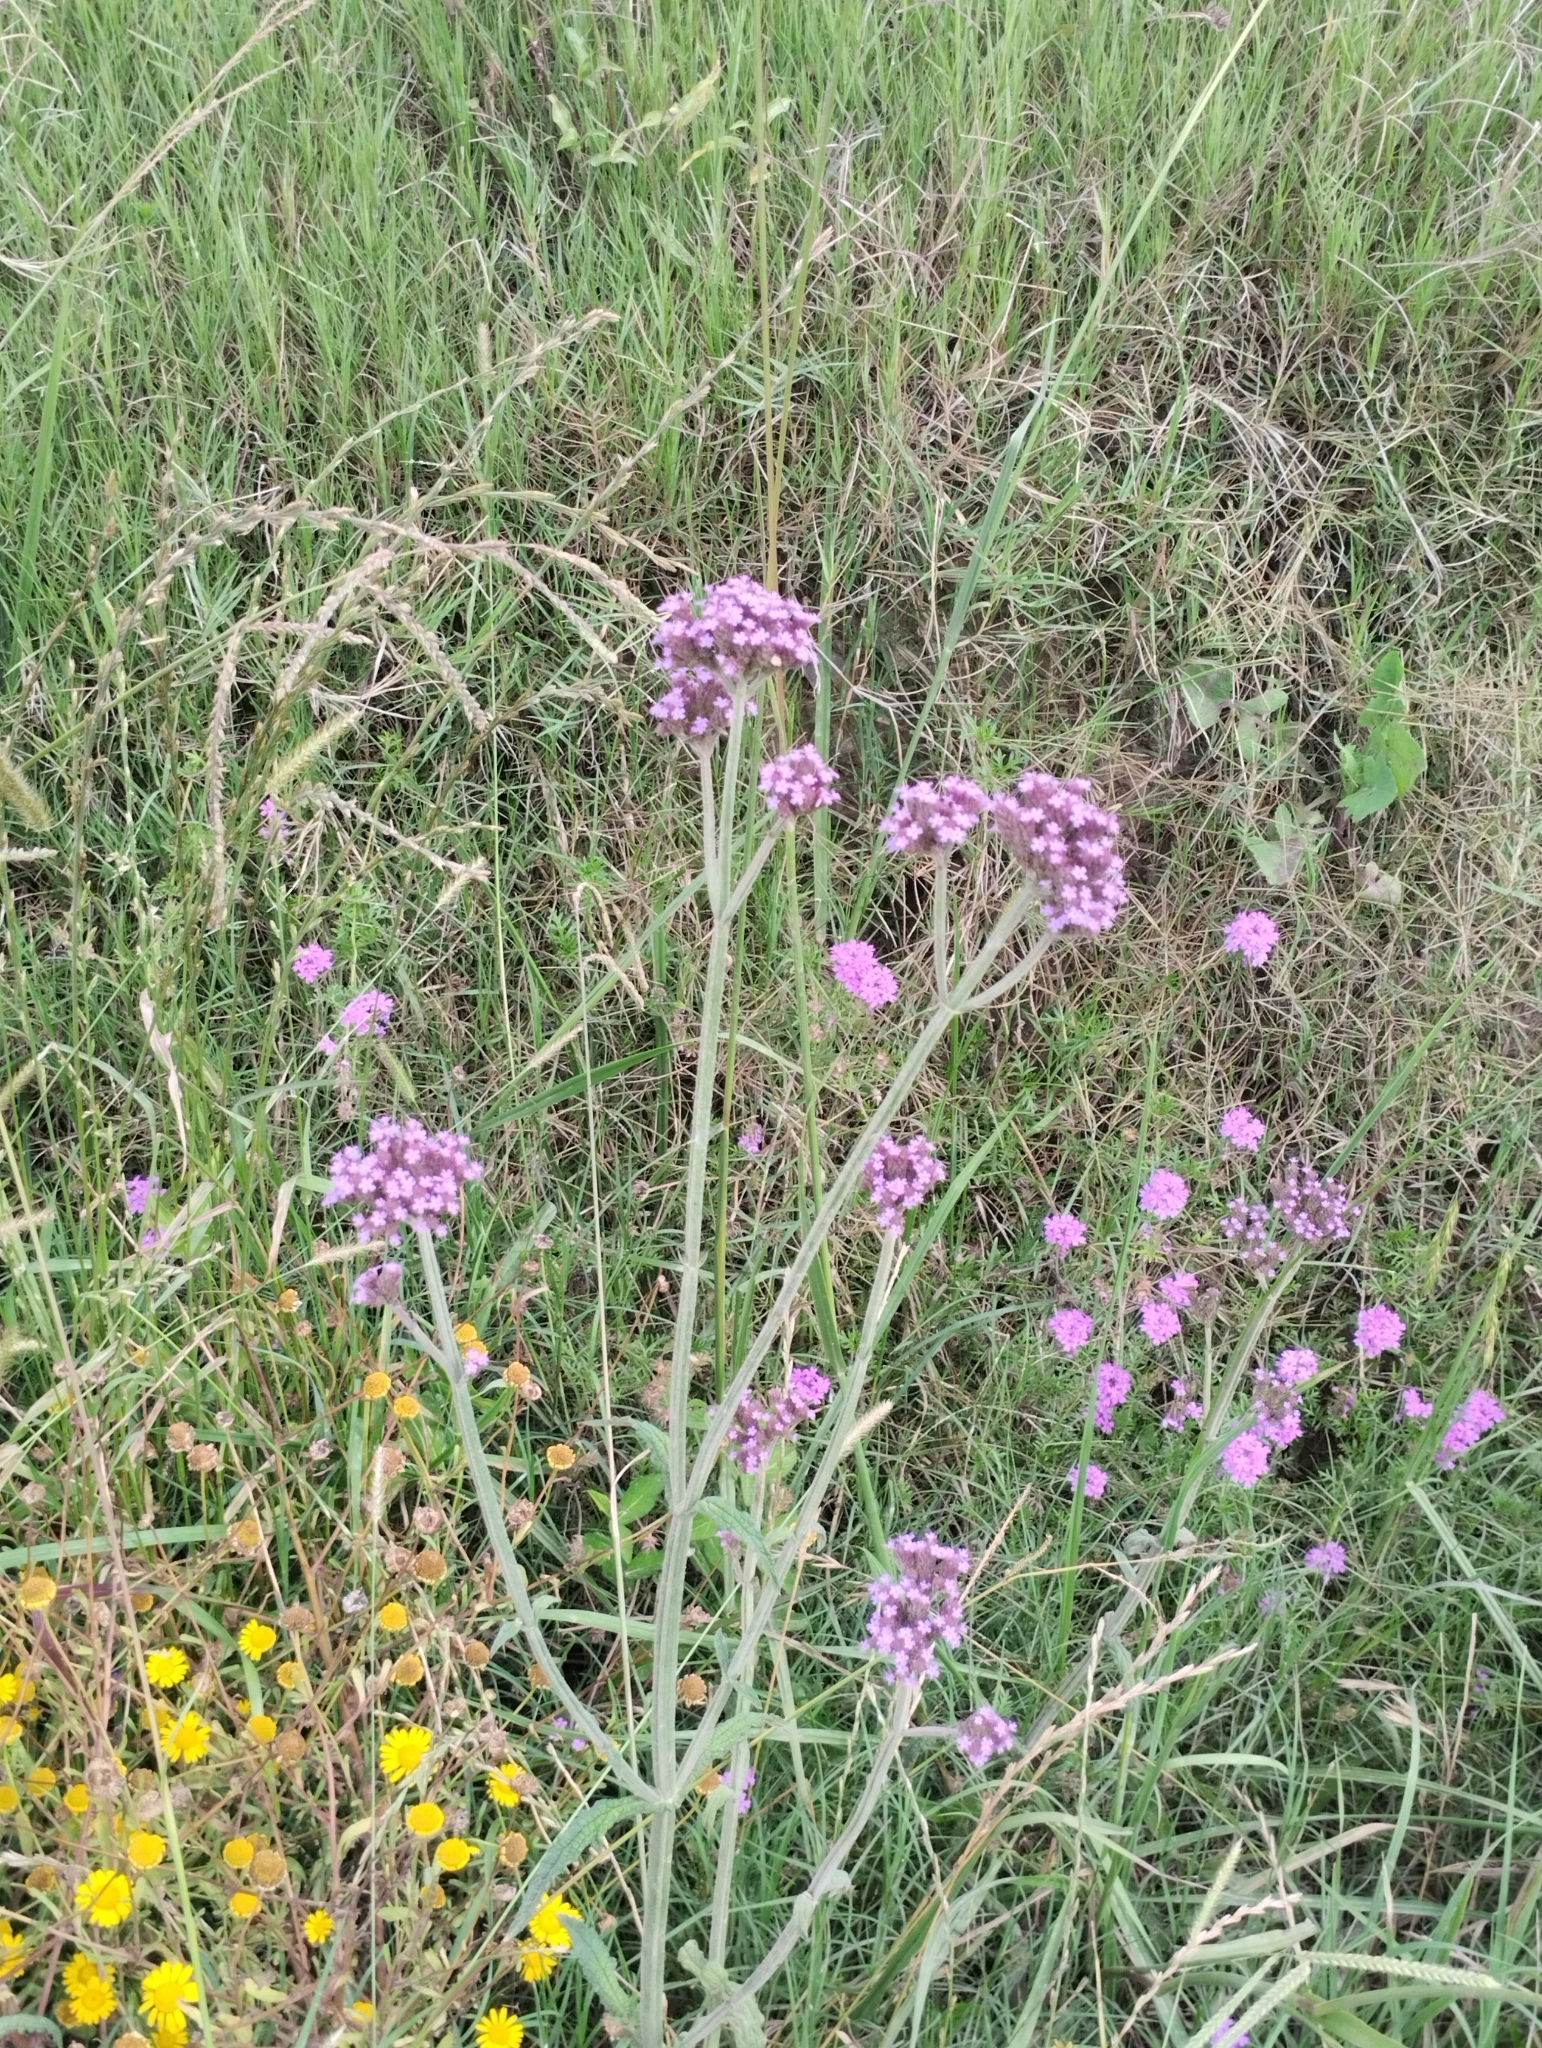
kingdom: Plantae
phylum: Tracheophyta
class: Magnoliopsida
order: Lamiales
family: Verbenaceae
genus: Verbena
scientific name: Verbena bonariensis
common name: Purpletop vervain
